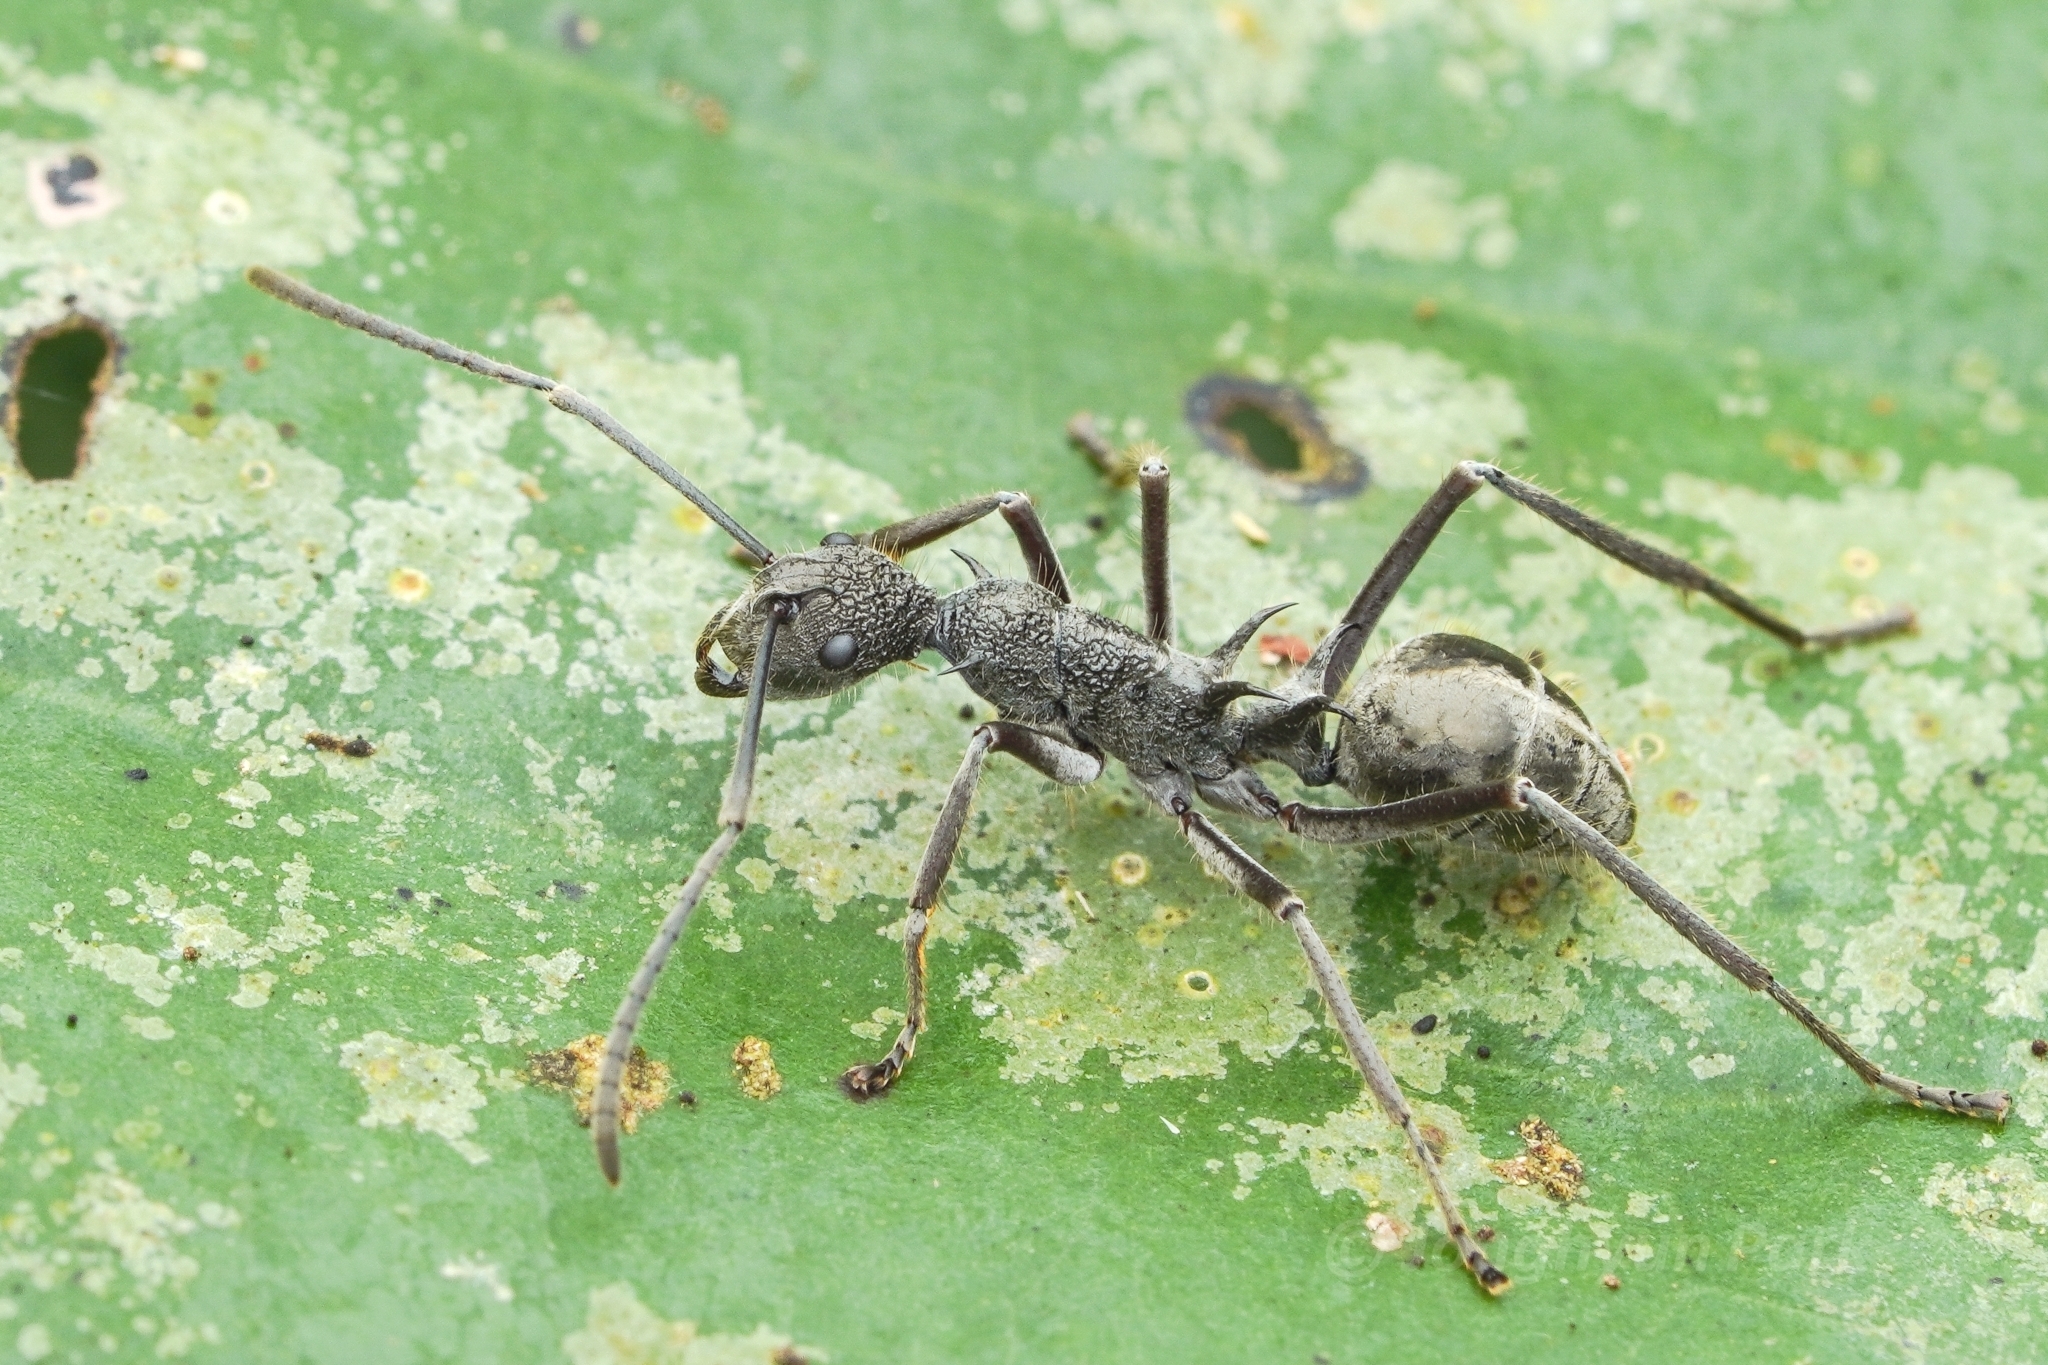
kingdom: Animalia
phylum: Arthropoda
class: Insecta
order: Hymenoptera
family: Formicidae
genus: Polyrhachis
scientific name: Polyrhachis calypso
